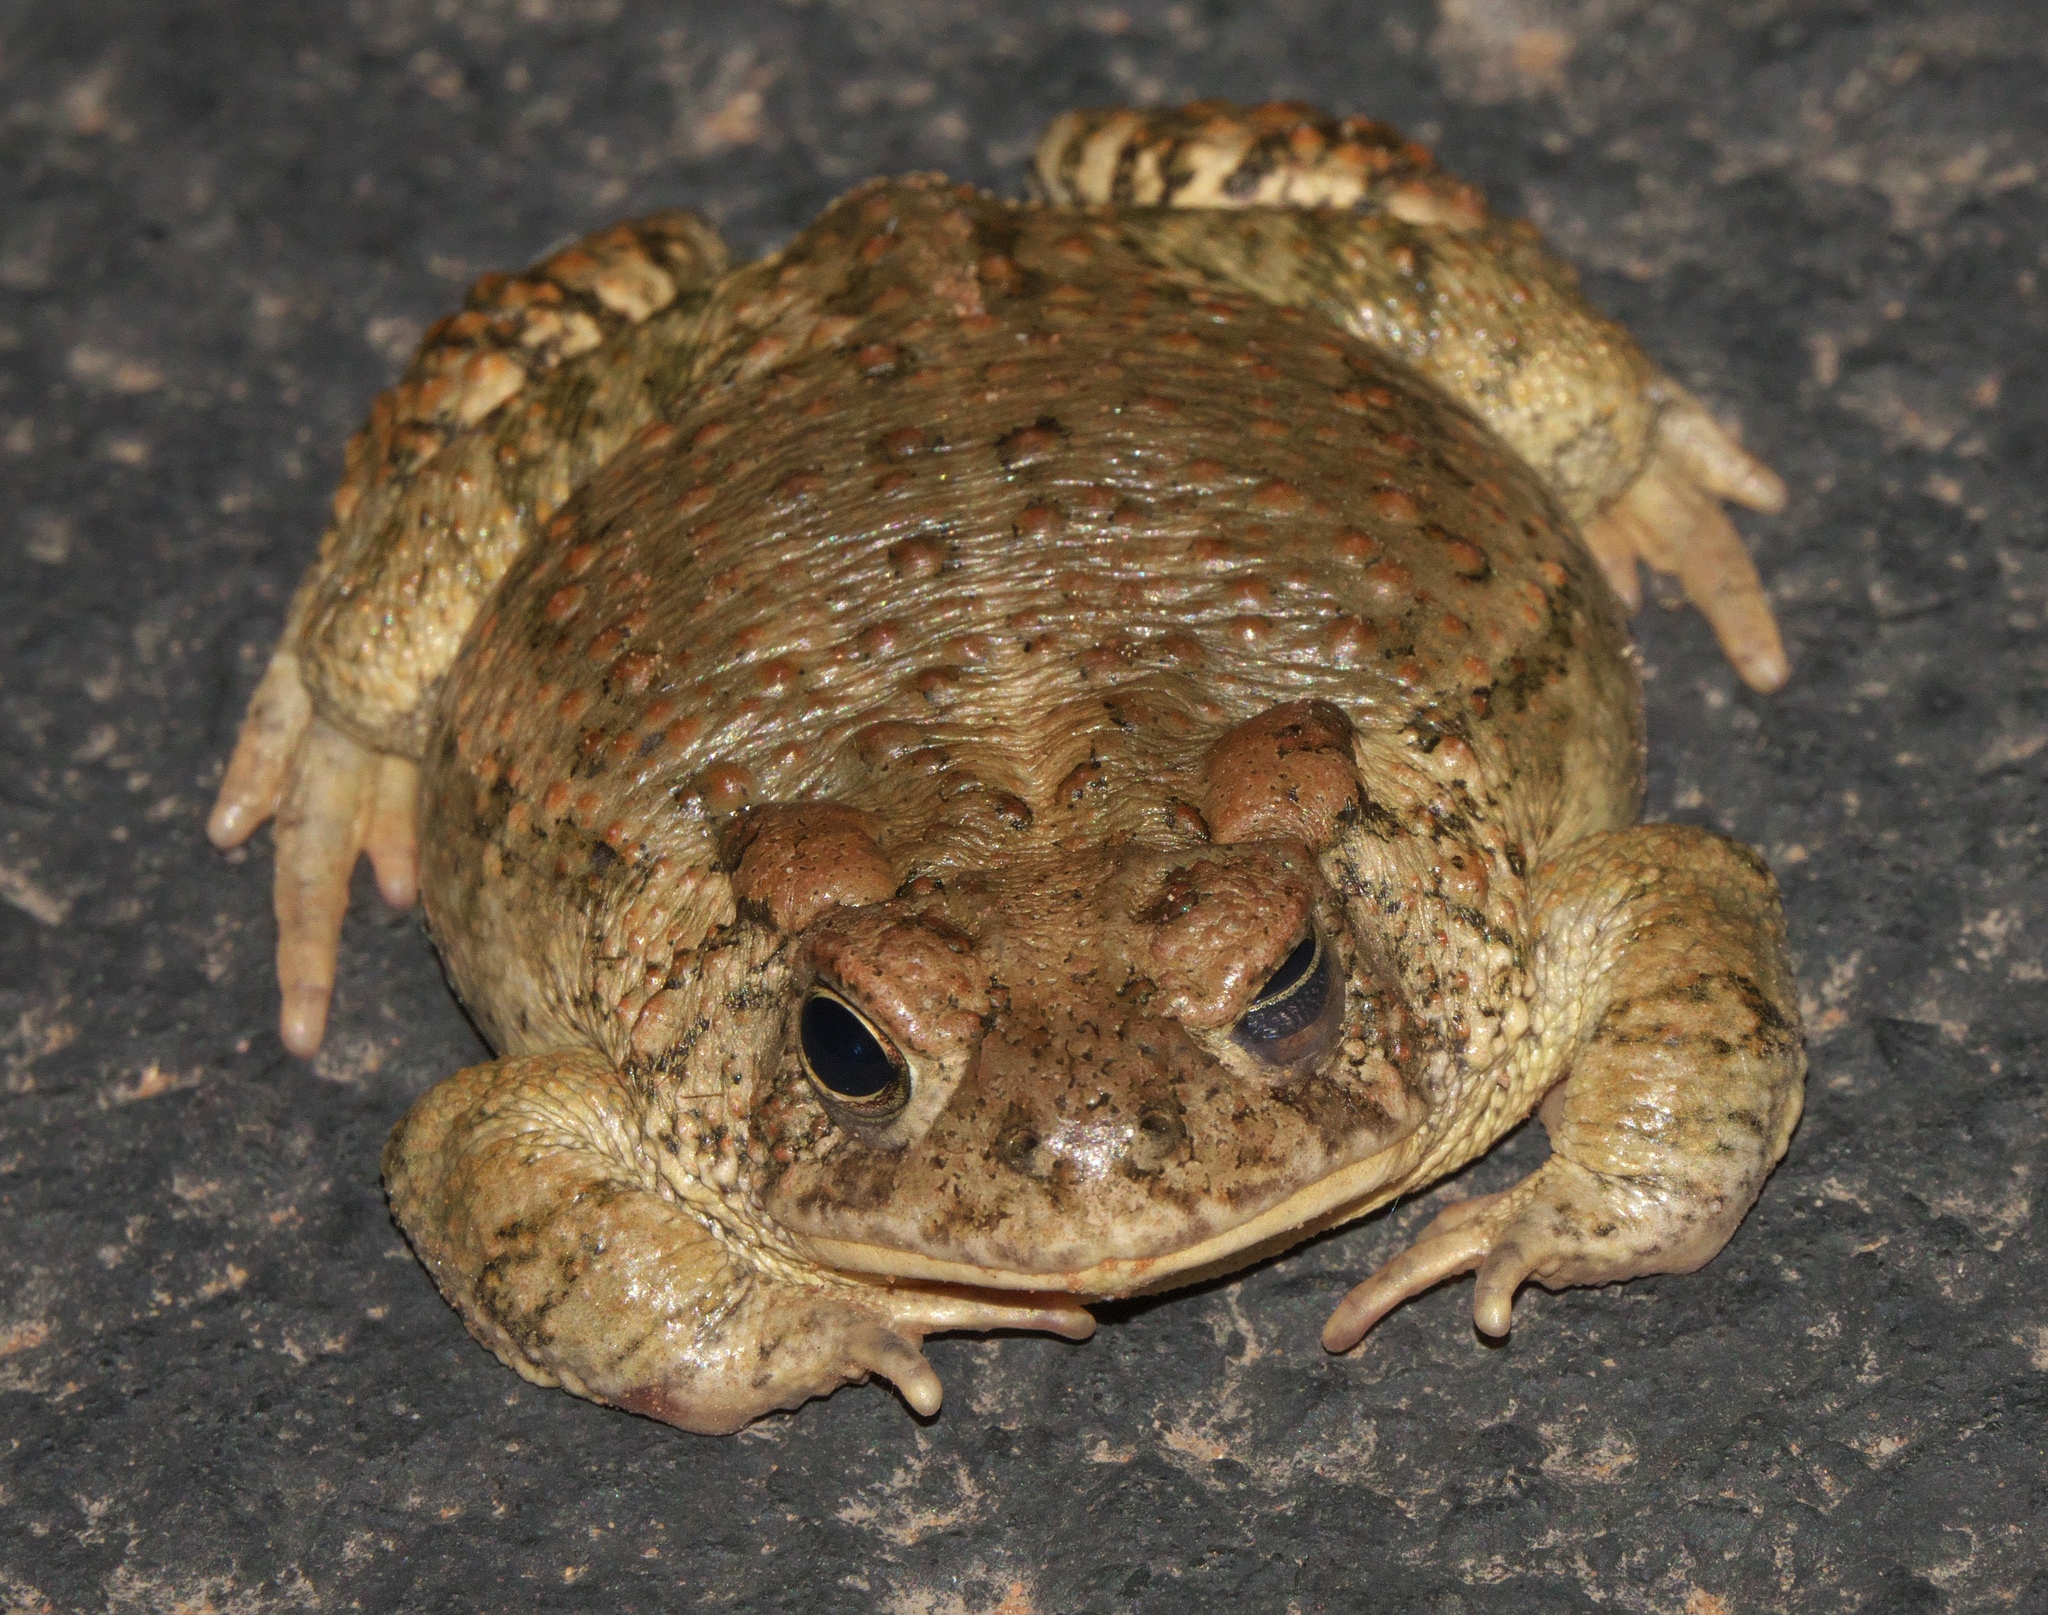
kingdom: Animalia
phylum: Chordata
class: Amphibia
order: Anura
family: Bufonidae
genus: Anaxyrus
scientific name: Anaxyrus woodhousii
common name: Woodhouse's toad
